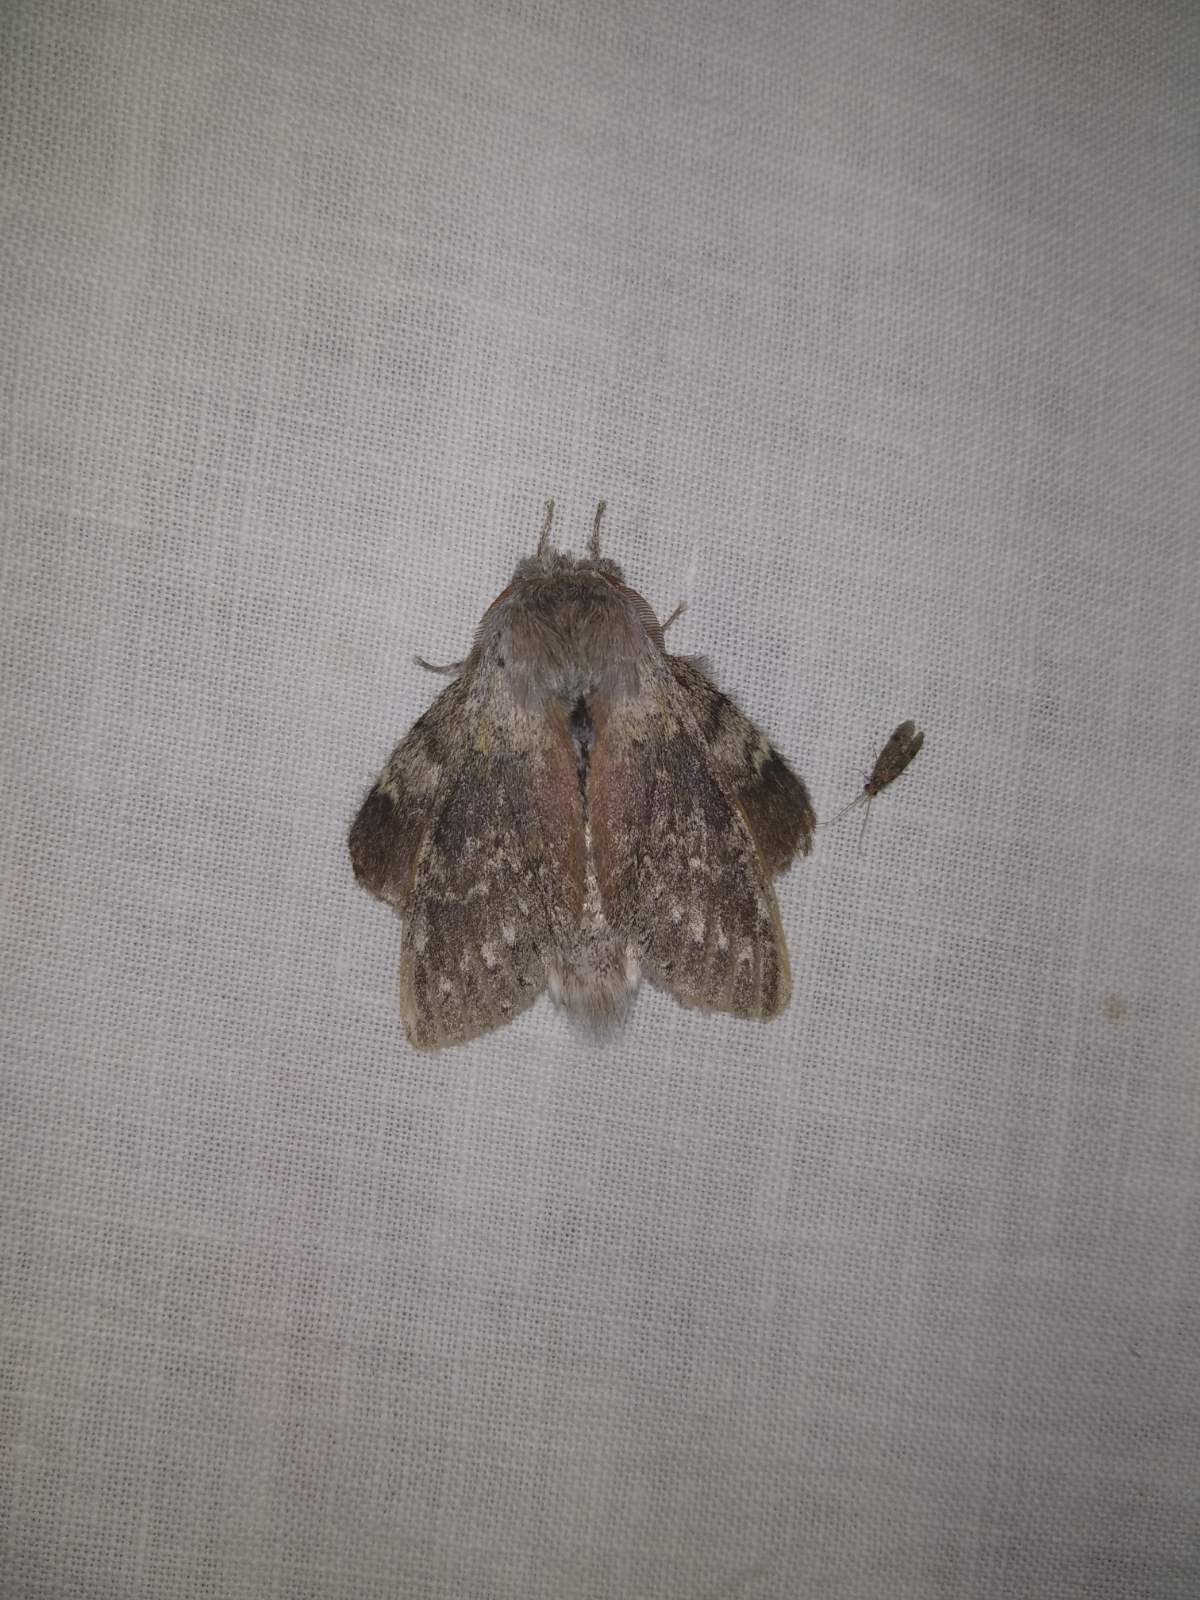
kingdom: Animalia
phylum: Arthropoda
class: Insecta
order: Lepidoptera
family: Notodontidae
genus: Stauropus
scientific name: Stauropus fagi
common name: Lobster moth
